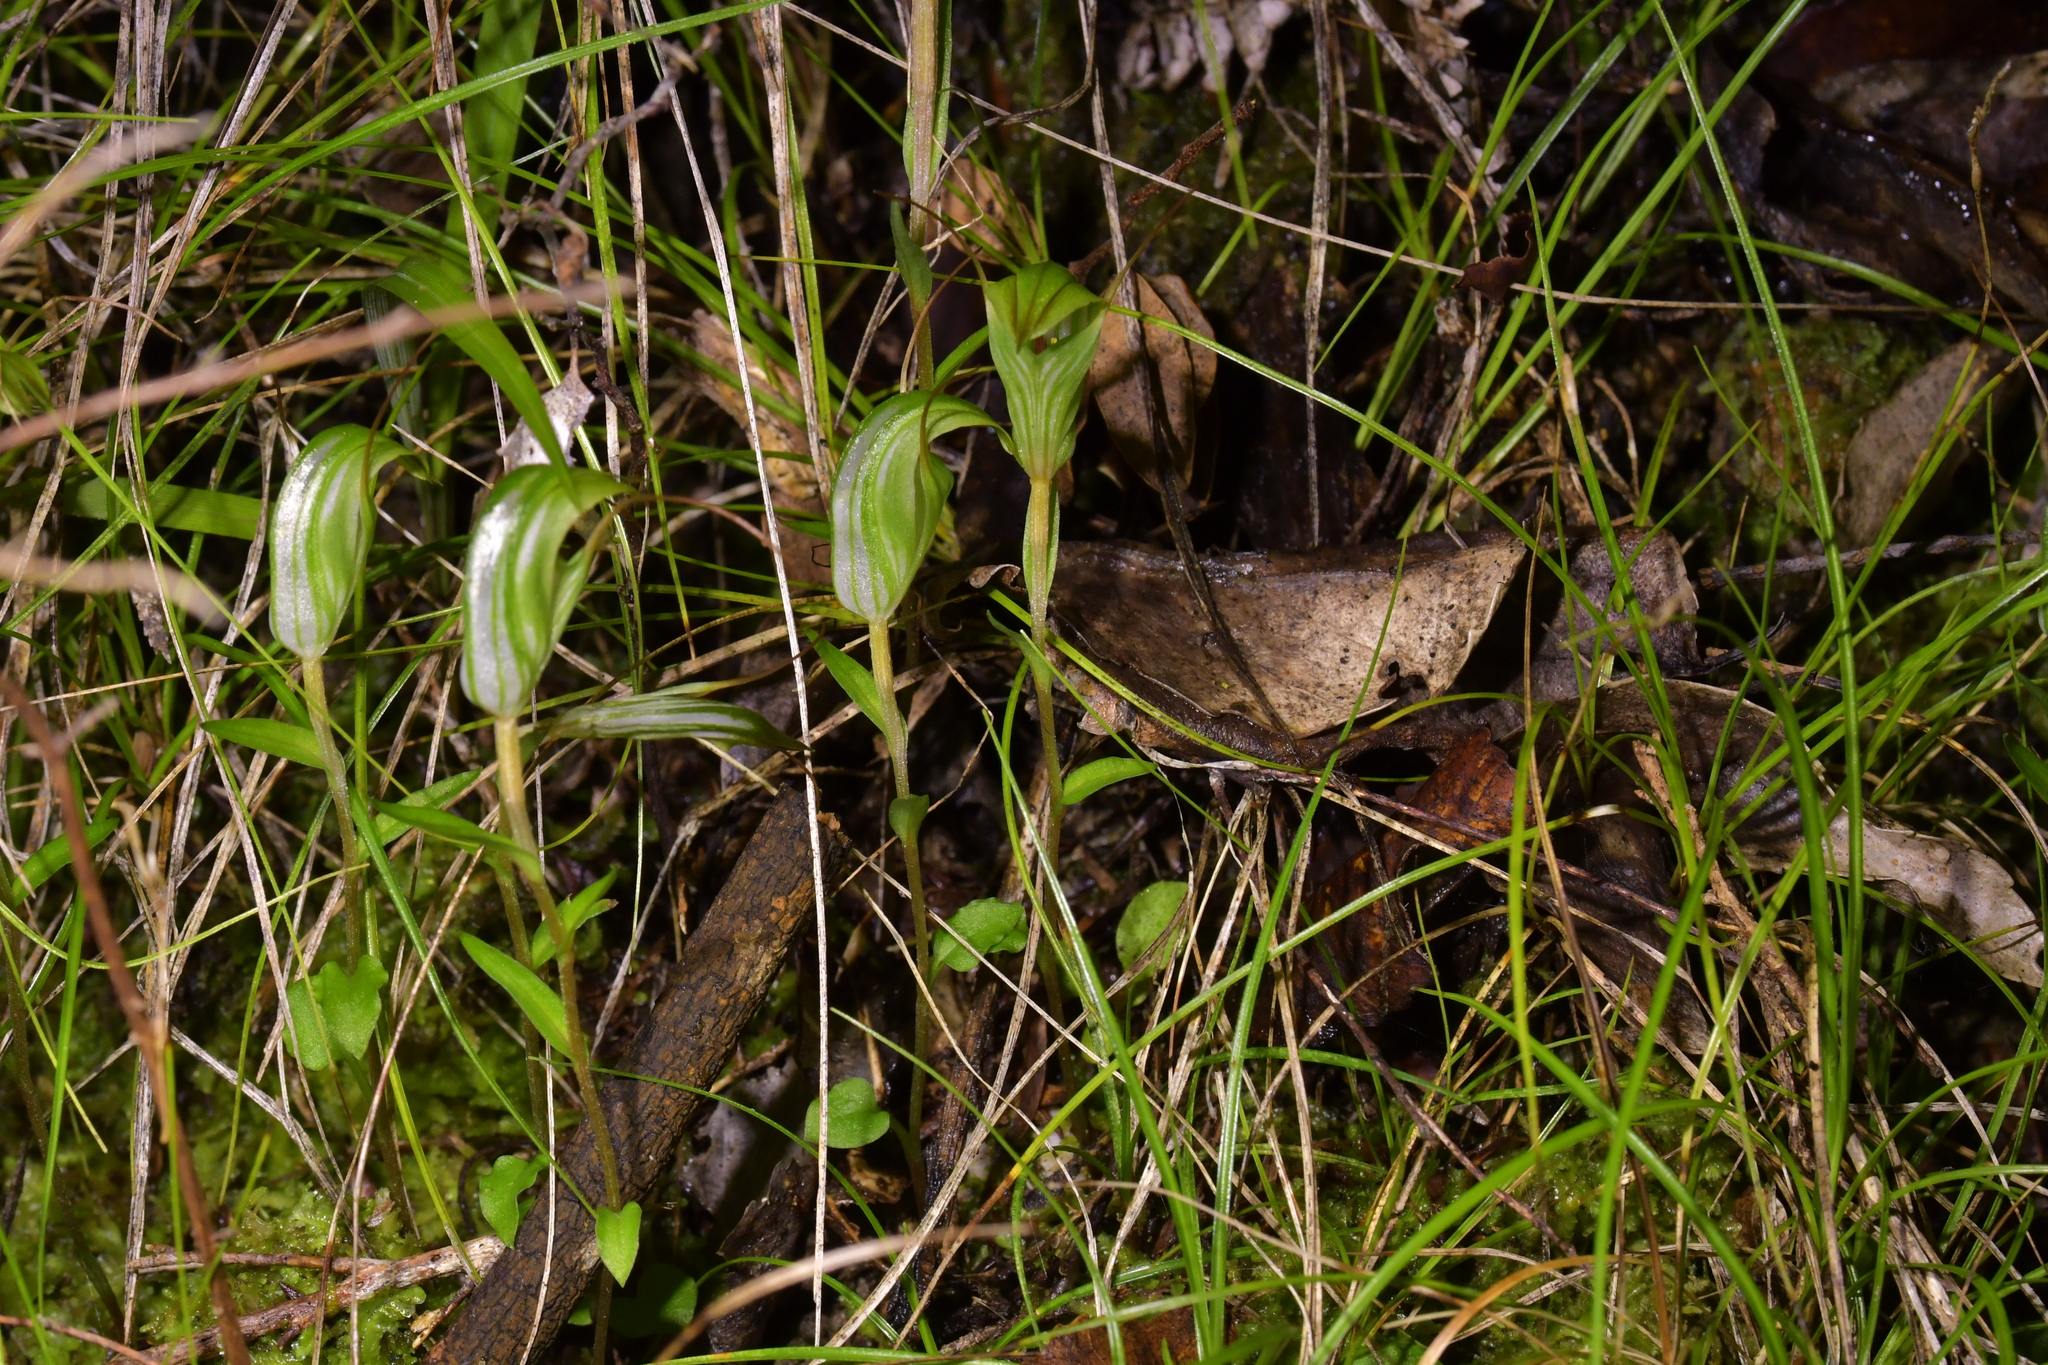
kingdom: Plantae
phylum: Tracheophyta
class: Liliopsida
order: Asparagales
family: Orchidaceae
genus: Pterostylis
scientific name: Pterostylis alobula
